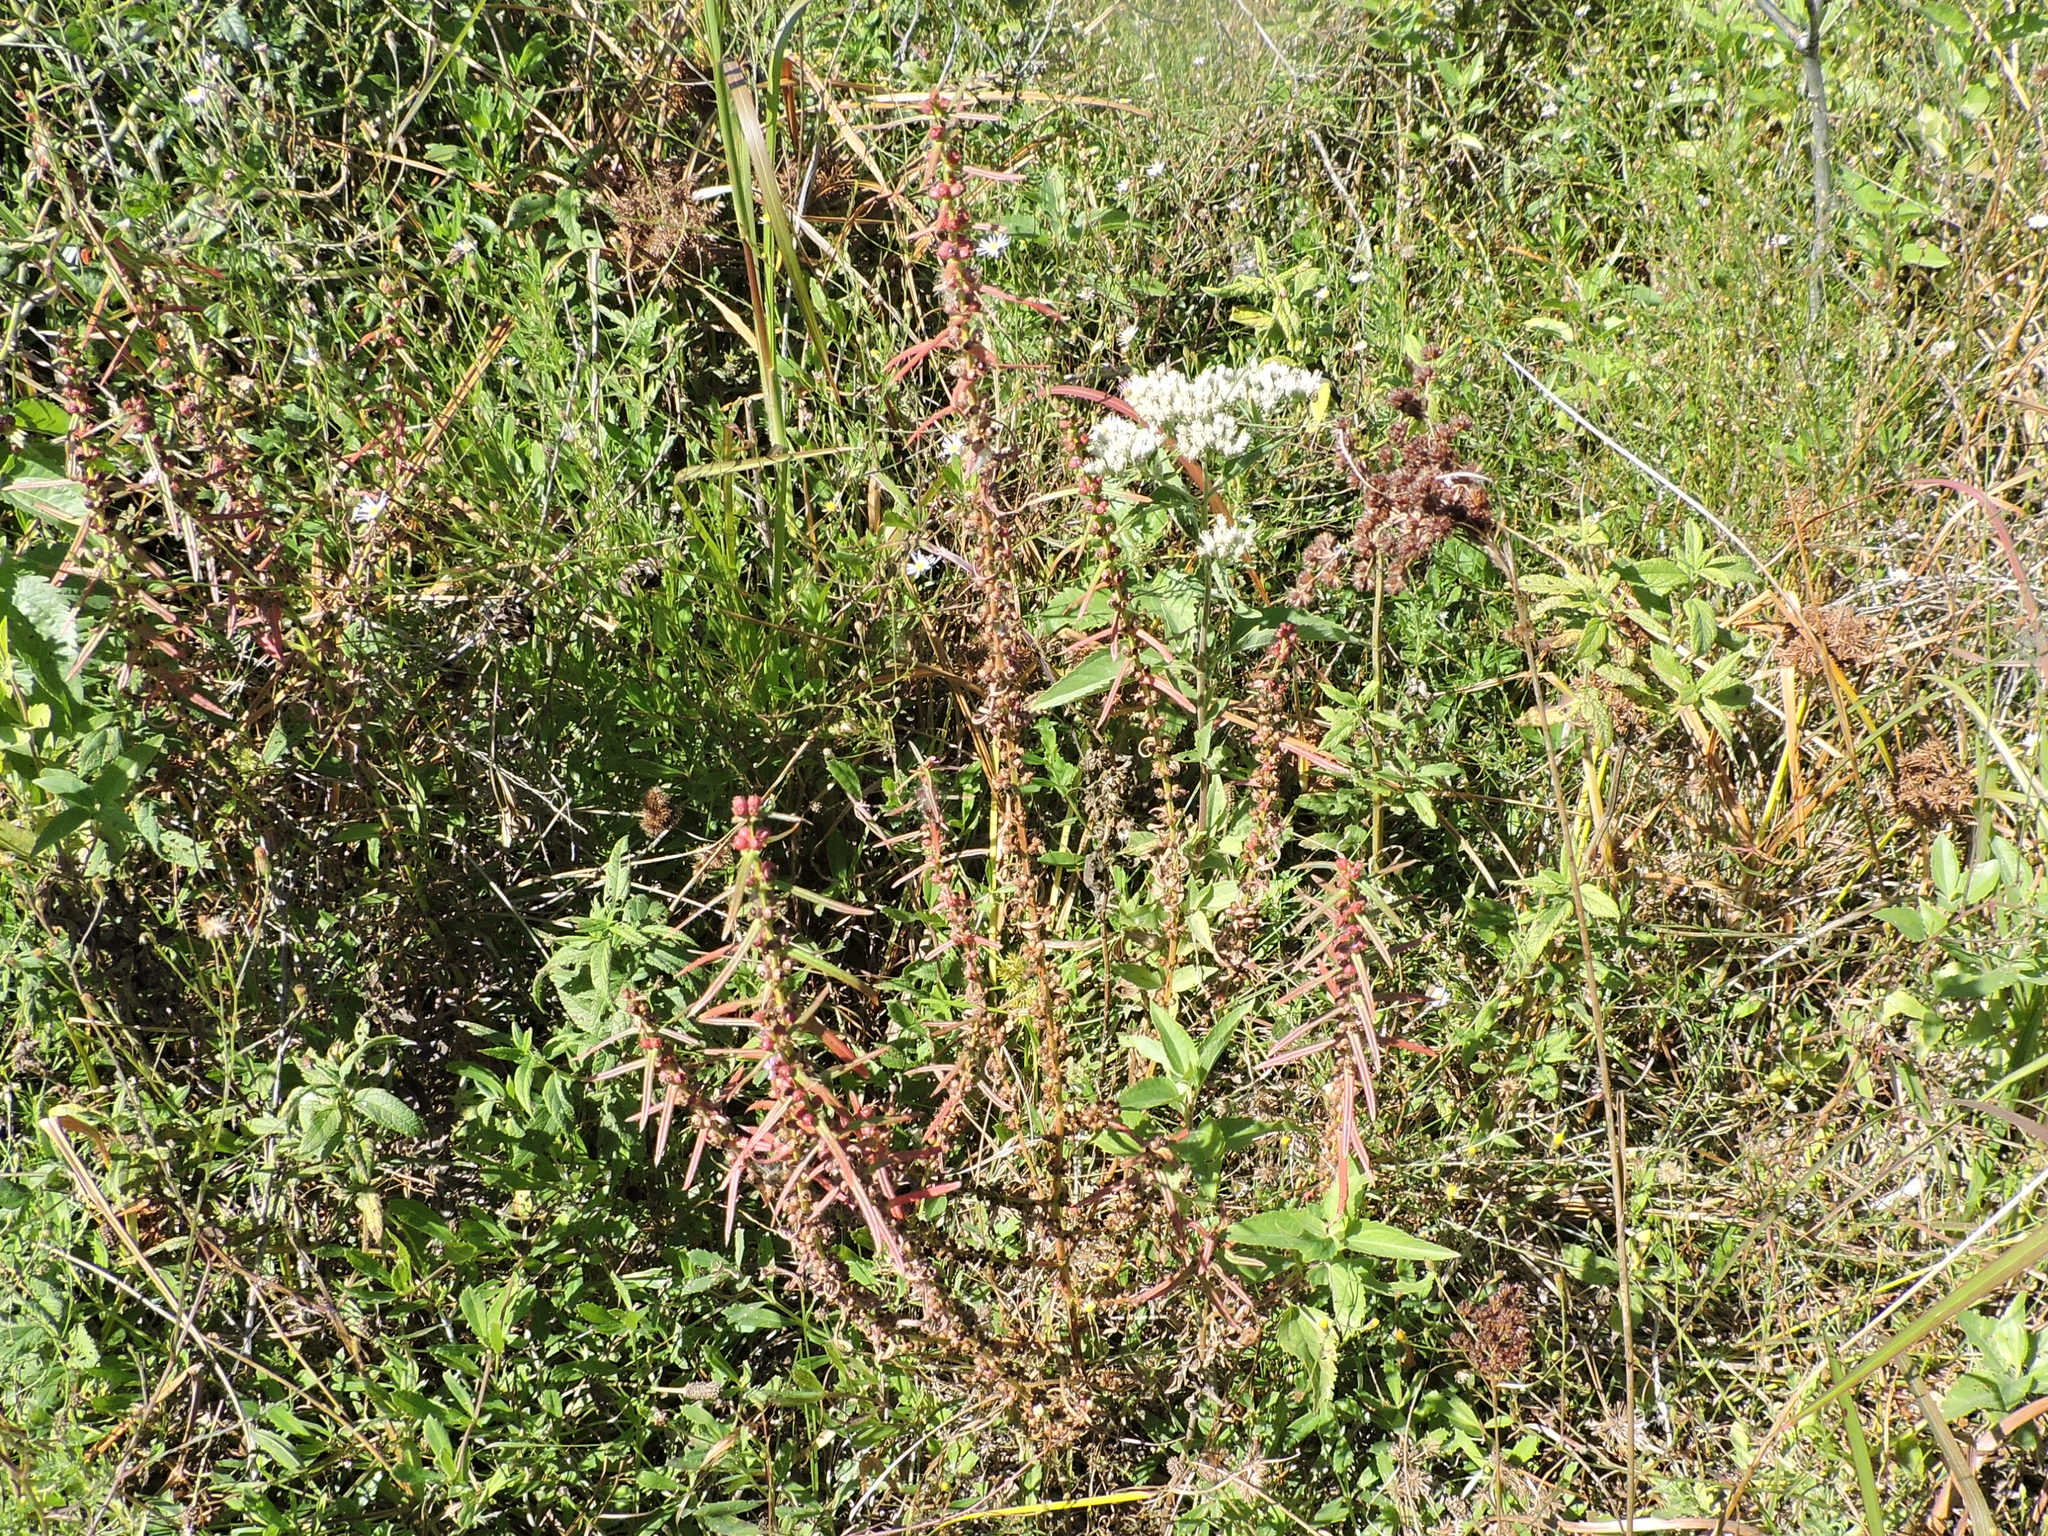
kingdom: Plantae
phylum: Tracheophyta
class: Magnoliopsida
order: Myrtales
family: Lythraceae
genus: Ammannia
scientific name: Ammannia coccinea
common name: Valley redstem
